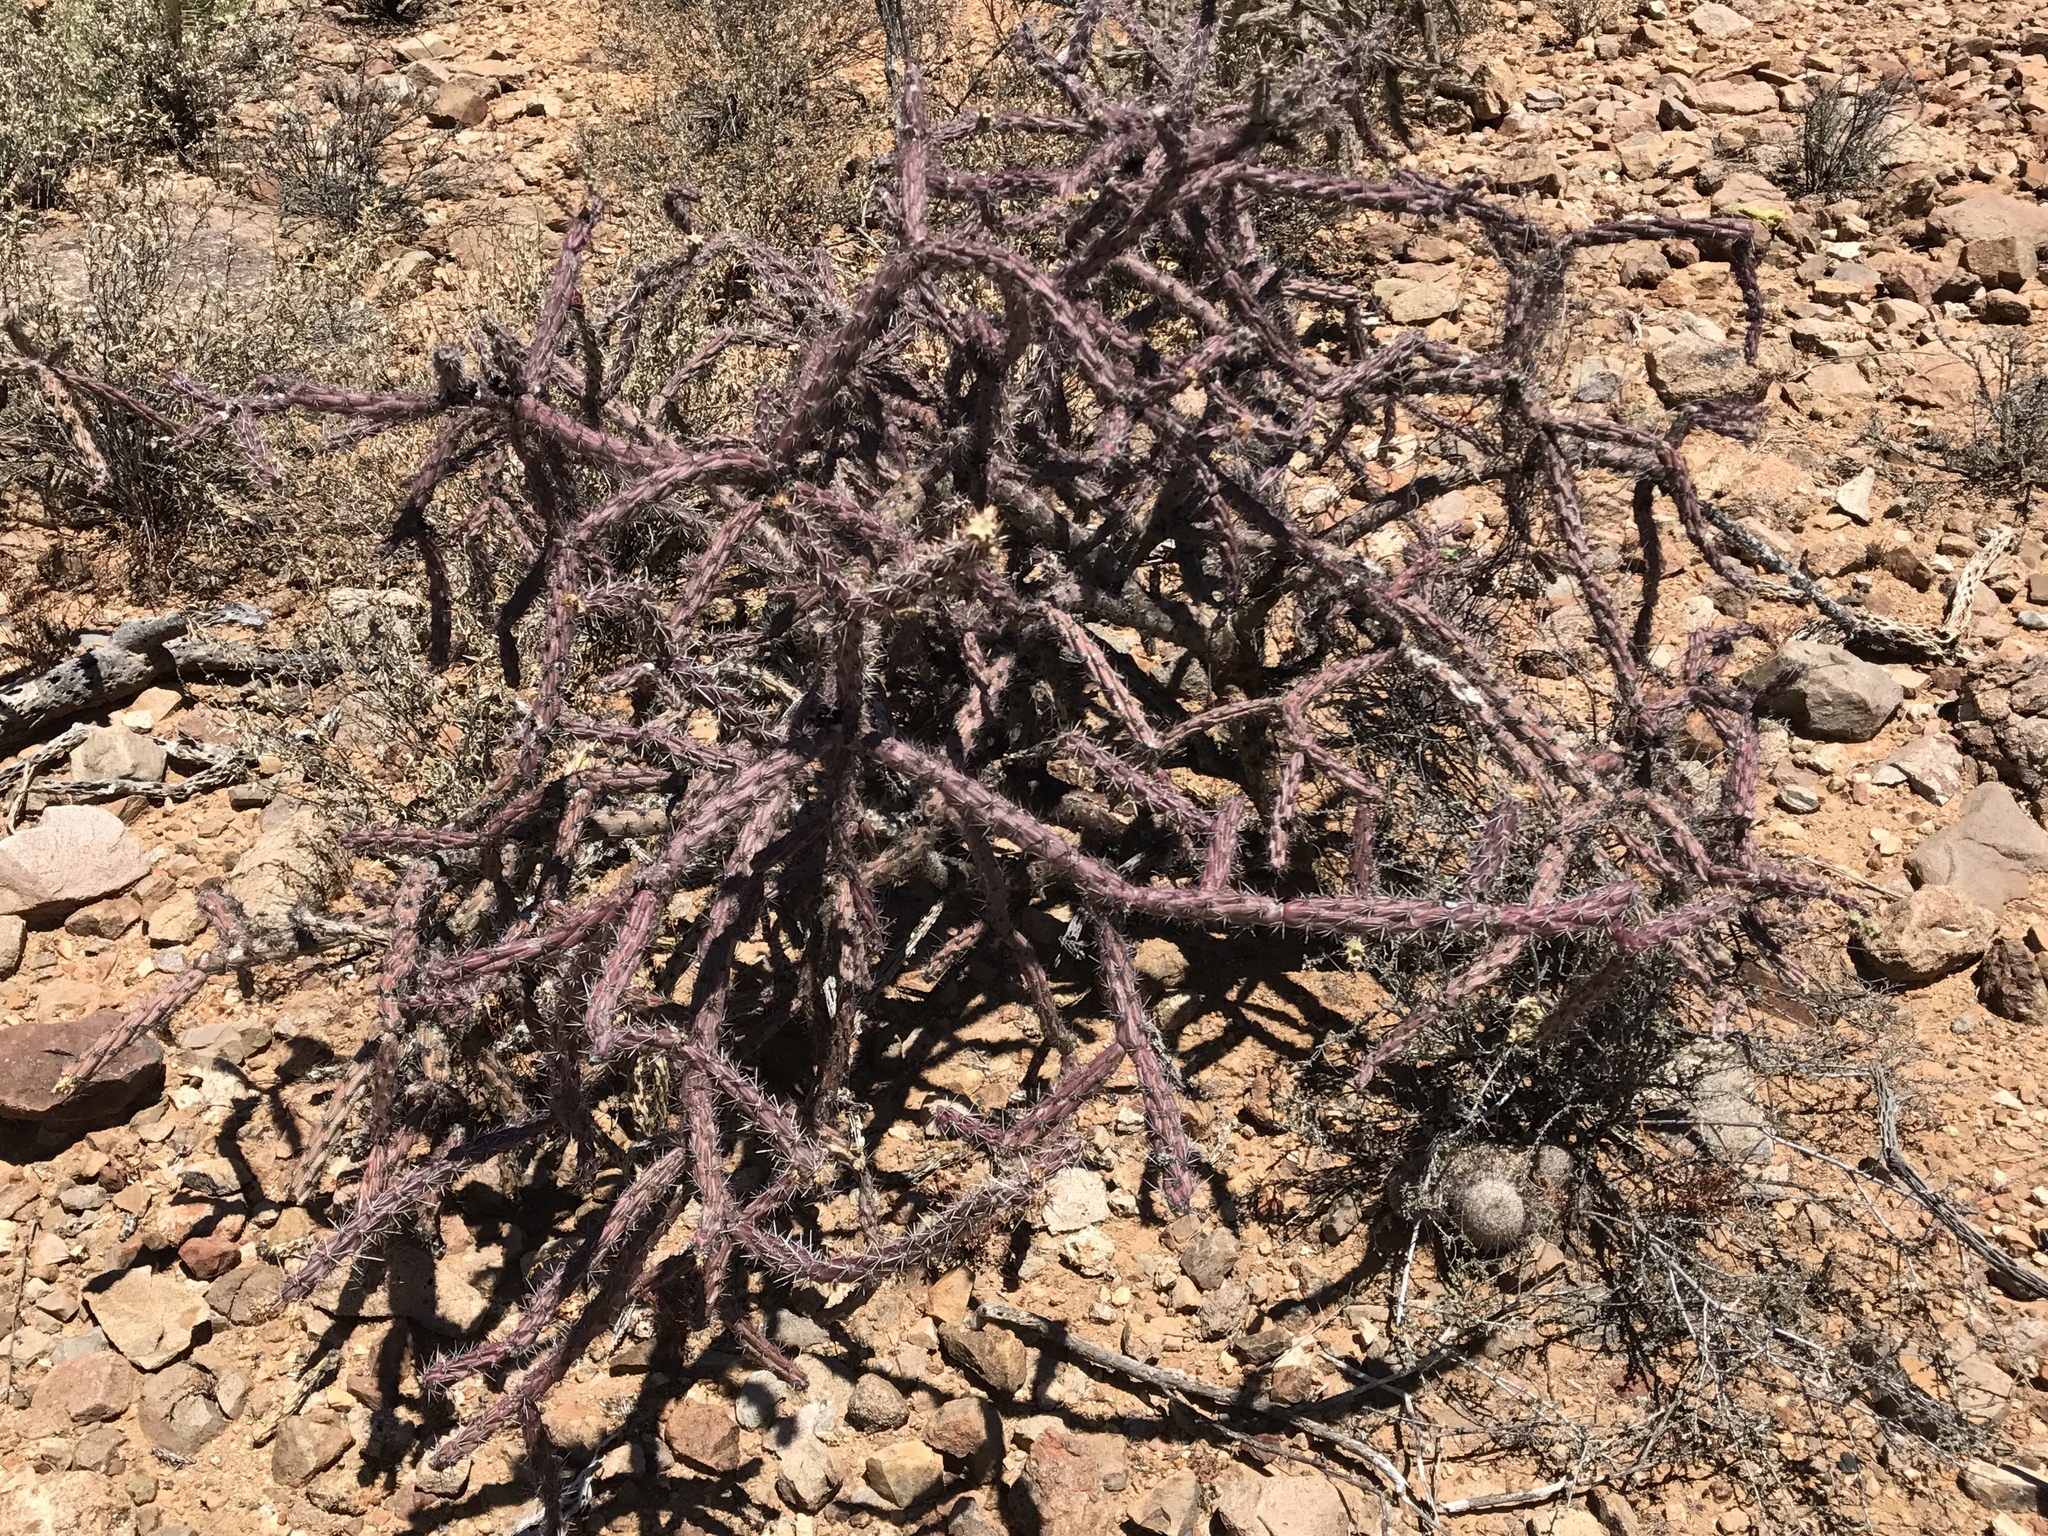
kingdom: Plantae
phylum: Tracheophyta
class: Magnoliopsida
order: Caryophyllales
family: Cactaceae
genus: Cylindropuntia
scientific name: Cylindropuntia thurberi
